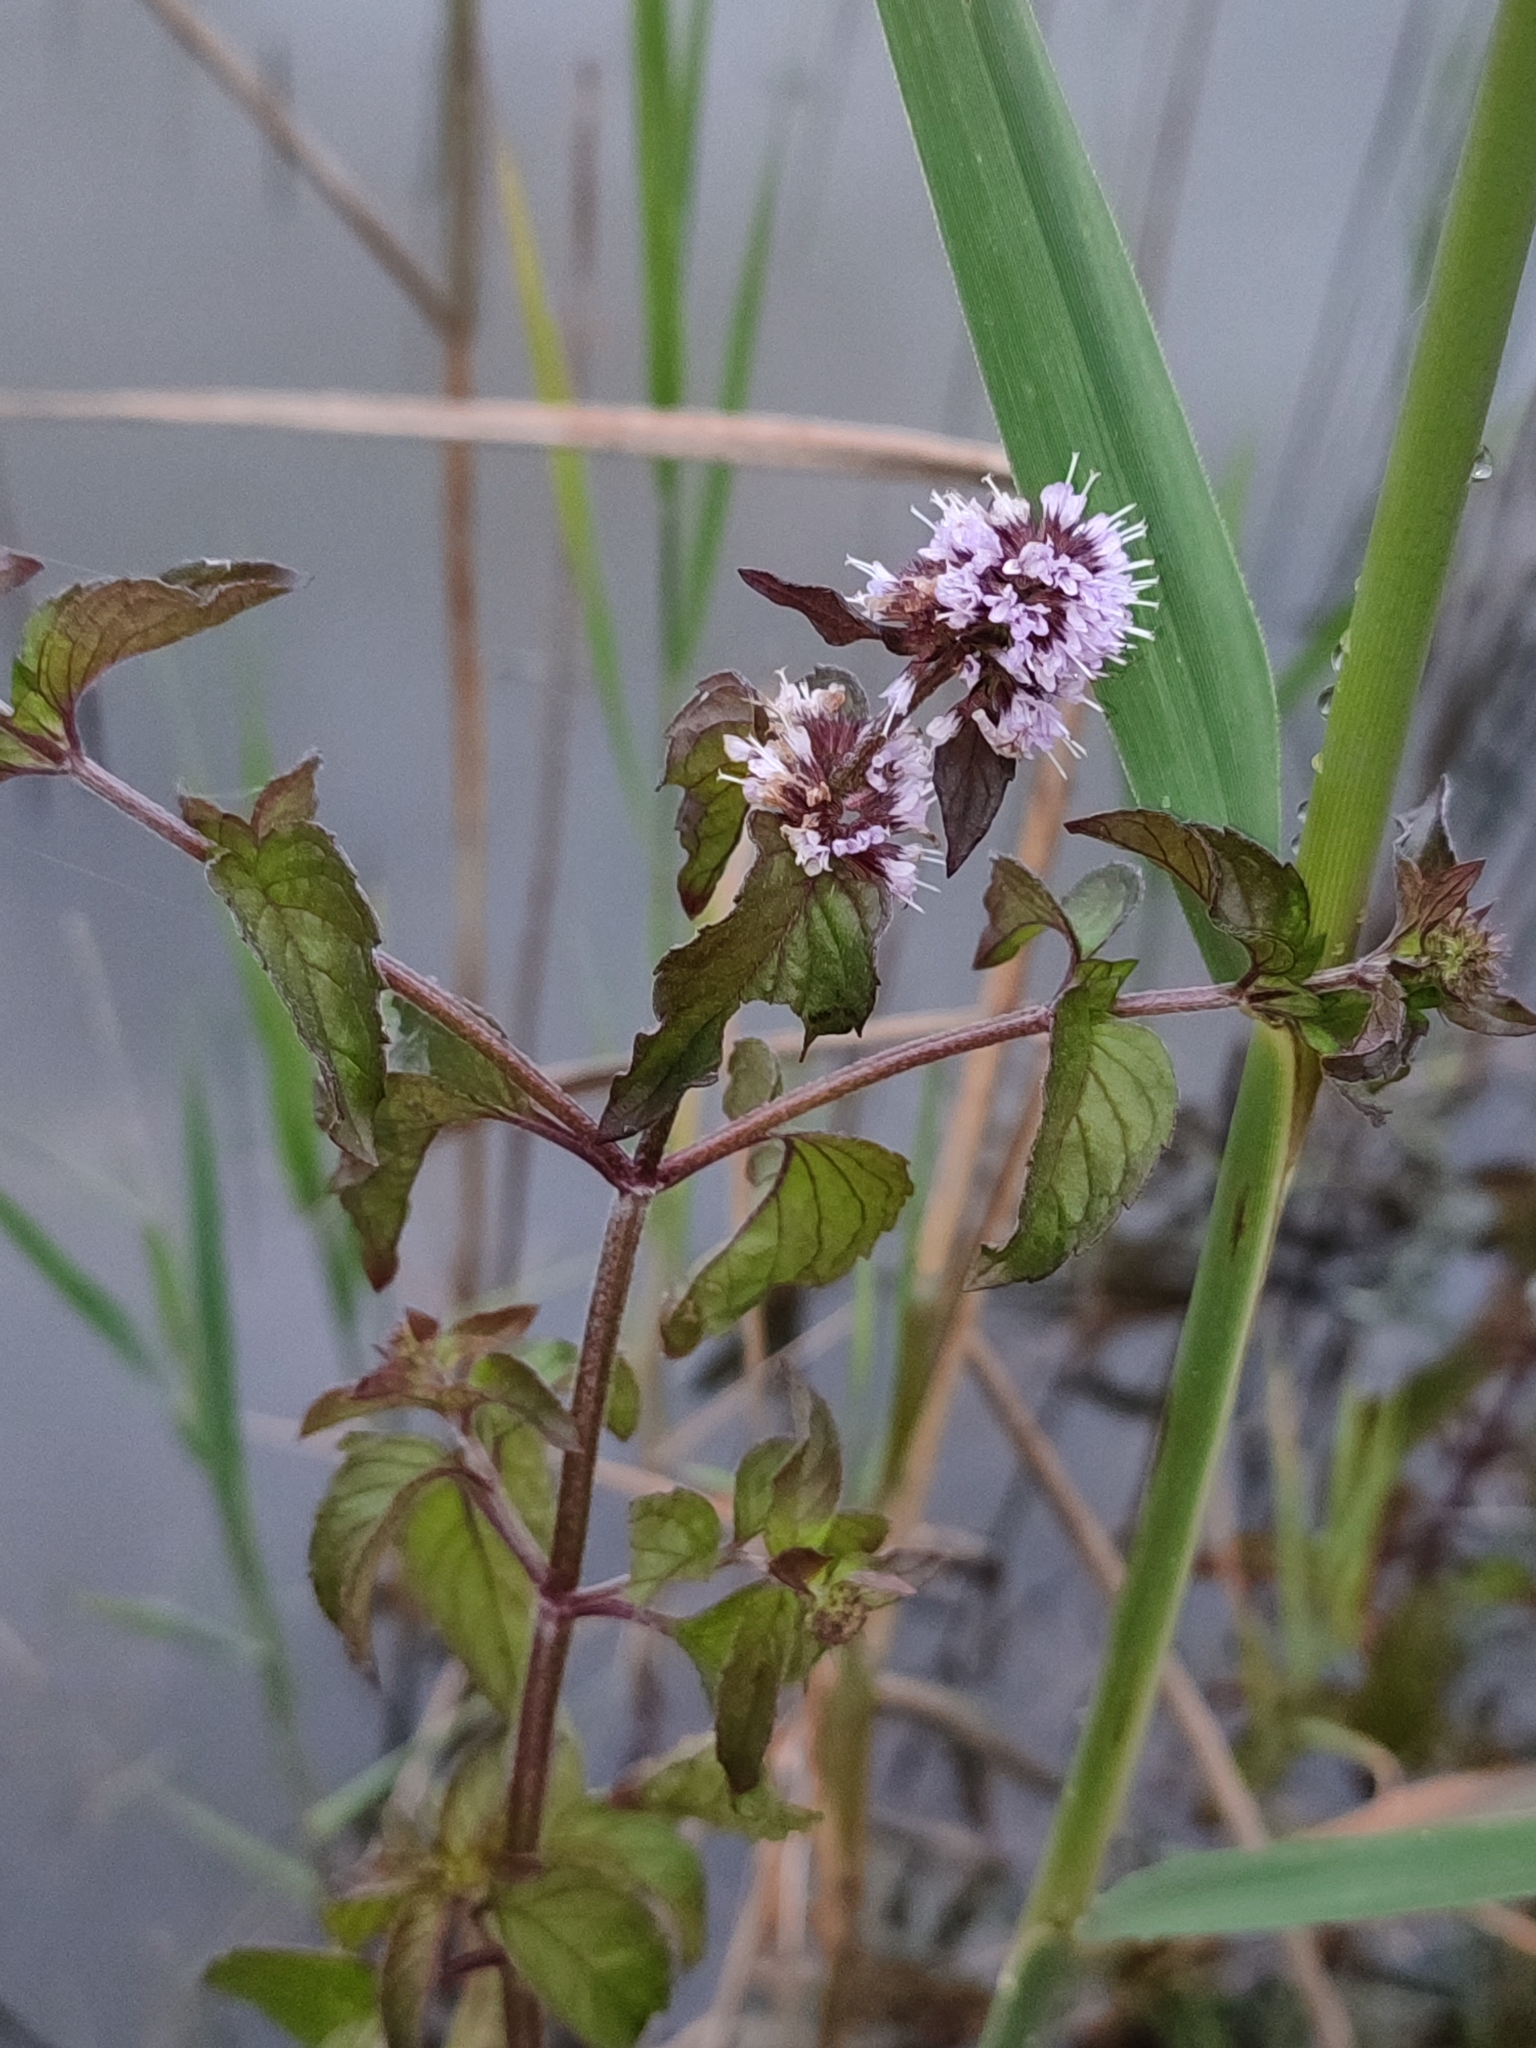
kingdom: Plantae
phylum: Tracheophyta
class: Magnoliopsida
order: Lamiales
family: Lamiaceae
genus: Mentha
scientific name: Mentha aquatica
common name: Water mint
